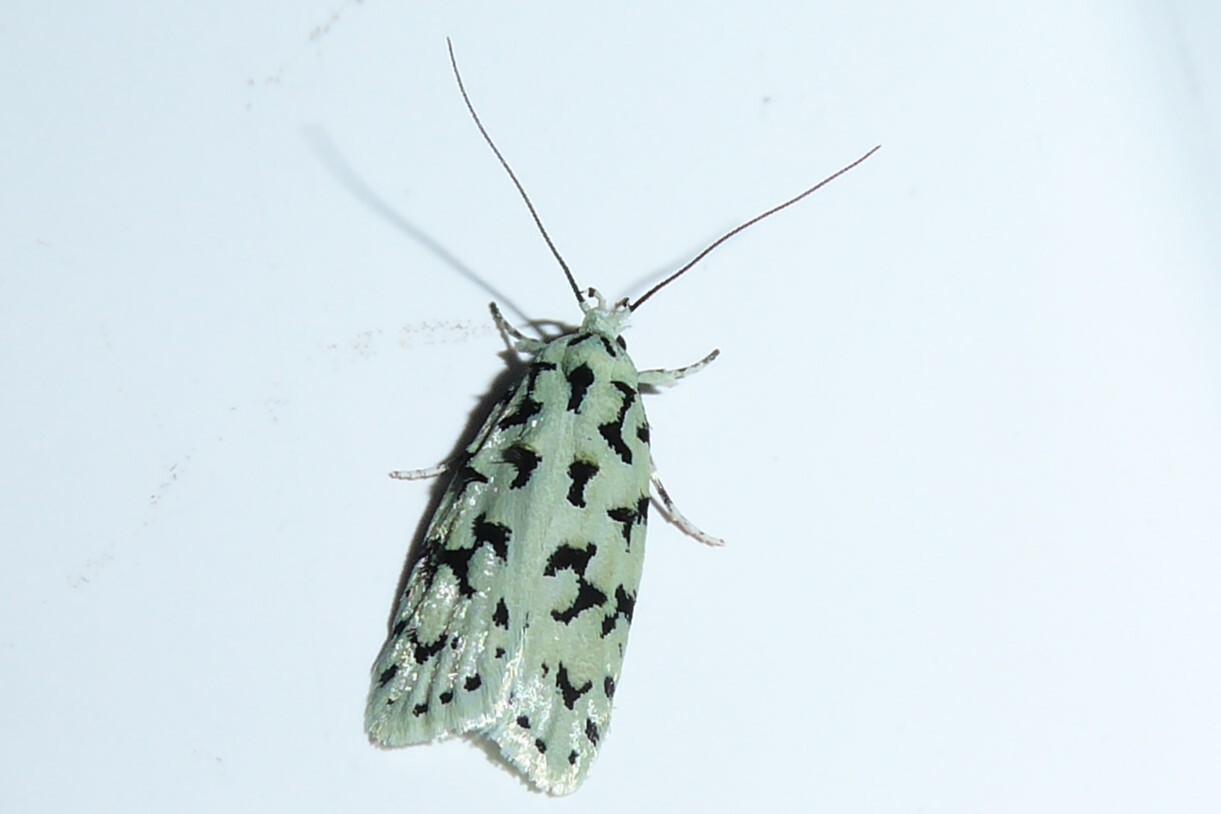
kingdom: Animalia
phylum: Arthropoda
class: Insecta
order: Lepidoptera
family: Oecophoridae
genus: Izatha
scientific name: Izatha huttoni
